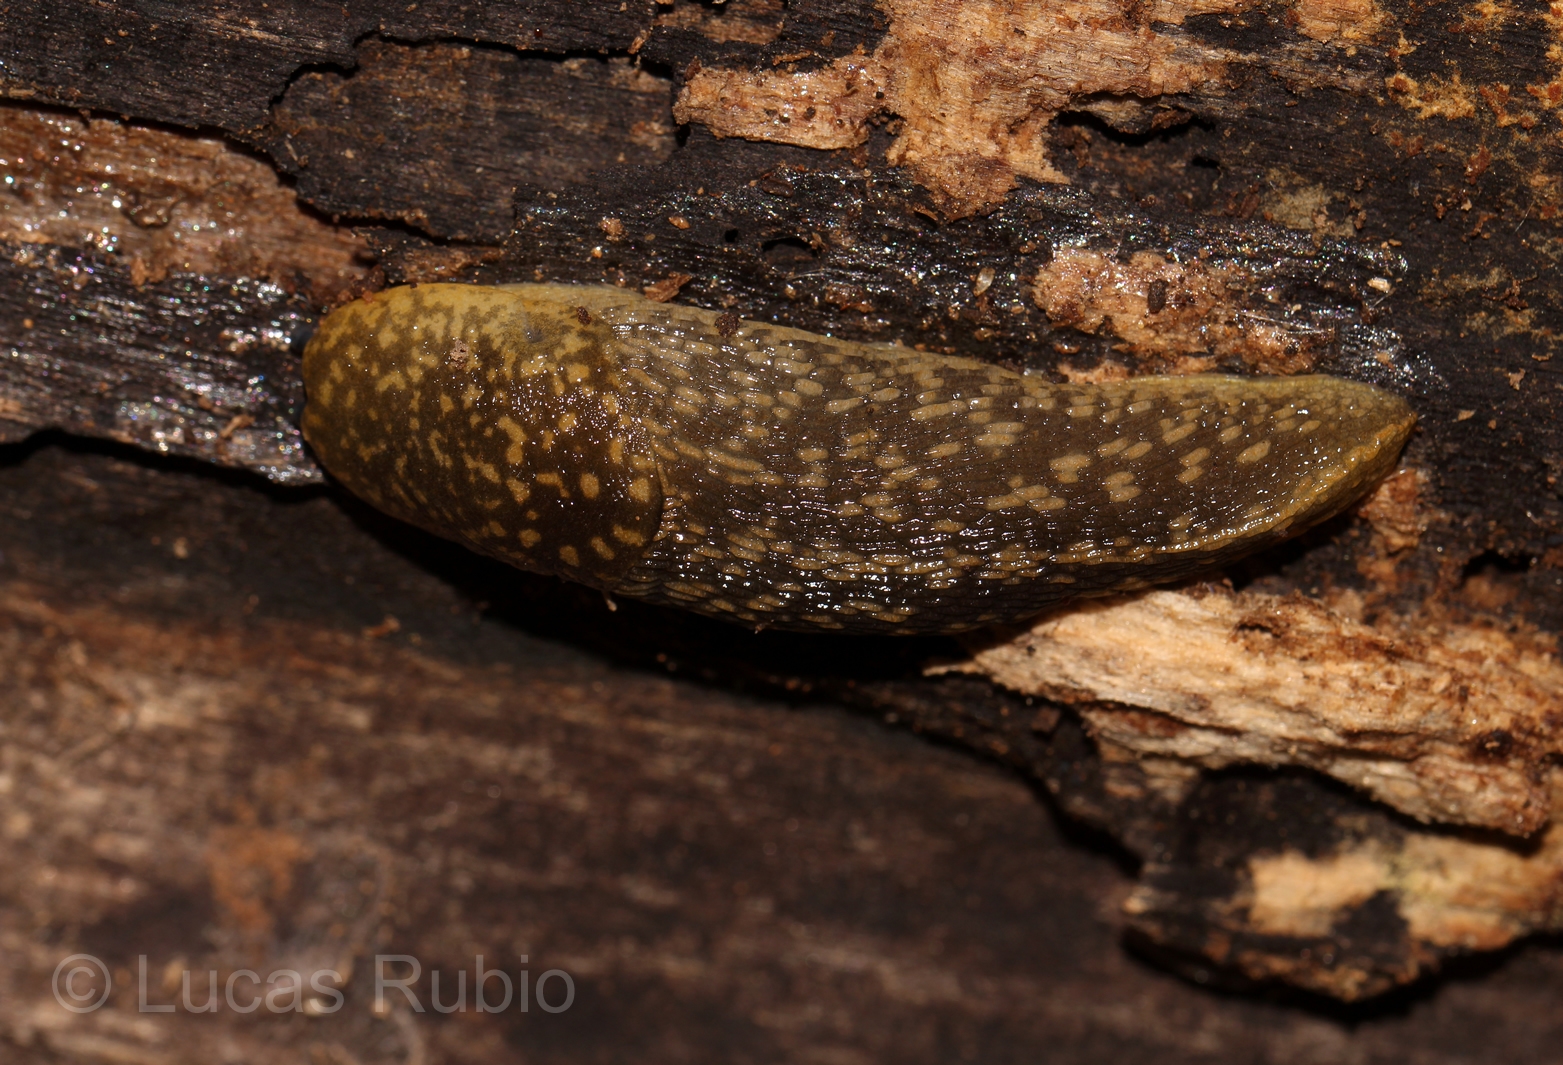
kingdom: Animalia
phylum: Mollusca
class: Gastropoda
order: Stylommatophora
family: Limacidae
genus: Limacus
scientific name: Limacus flavus
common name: Yellow gardenslug
